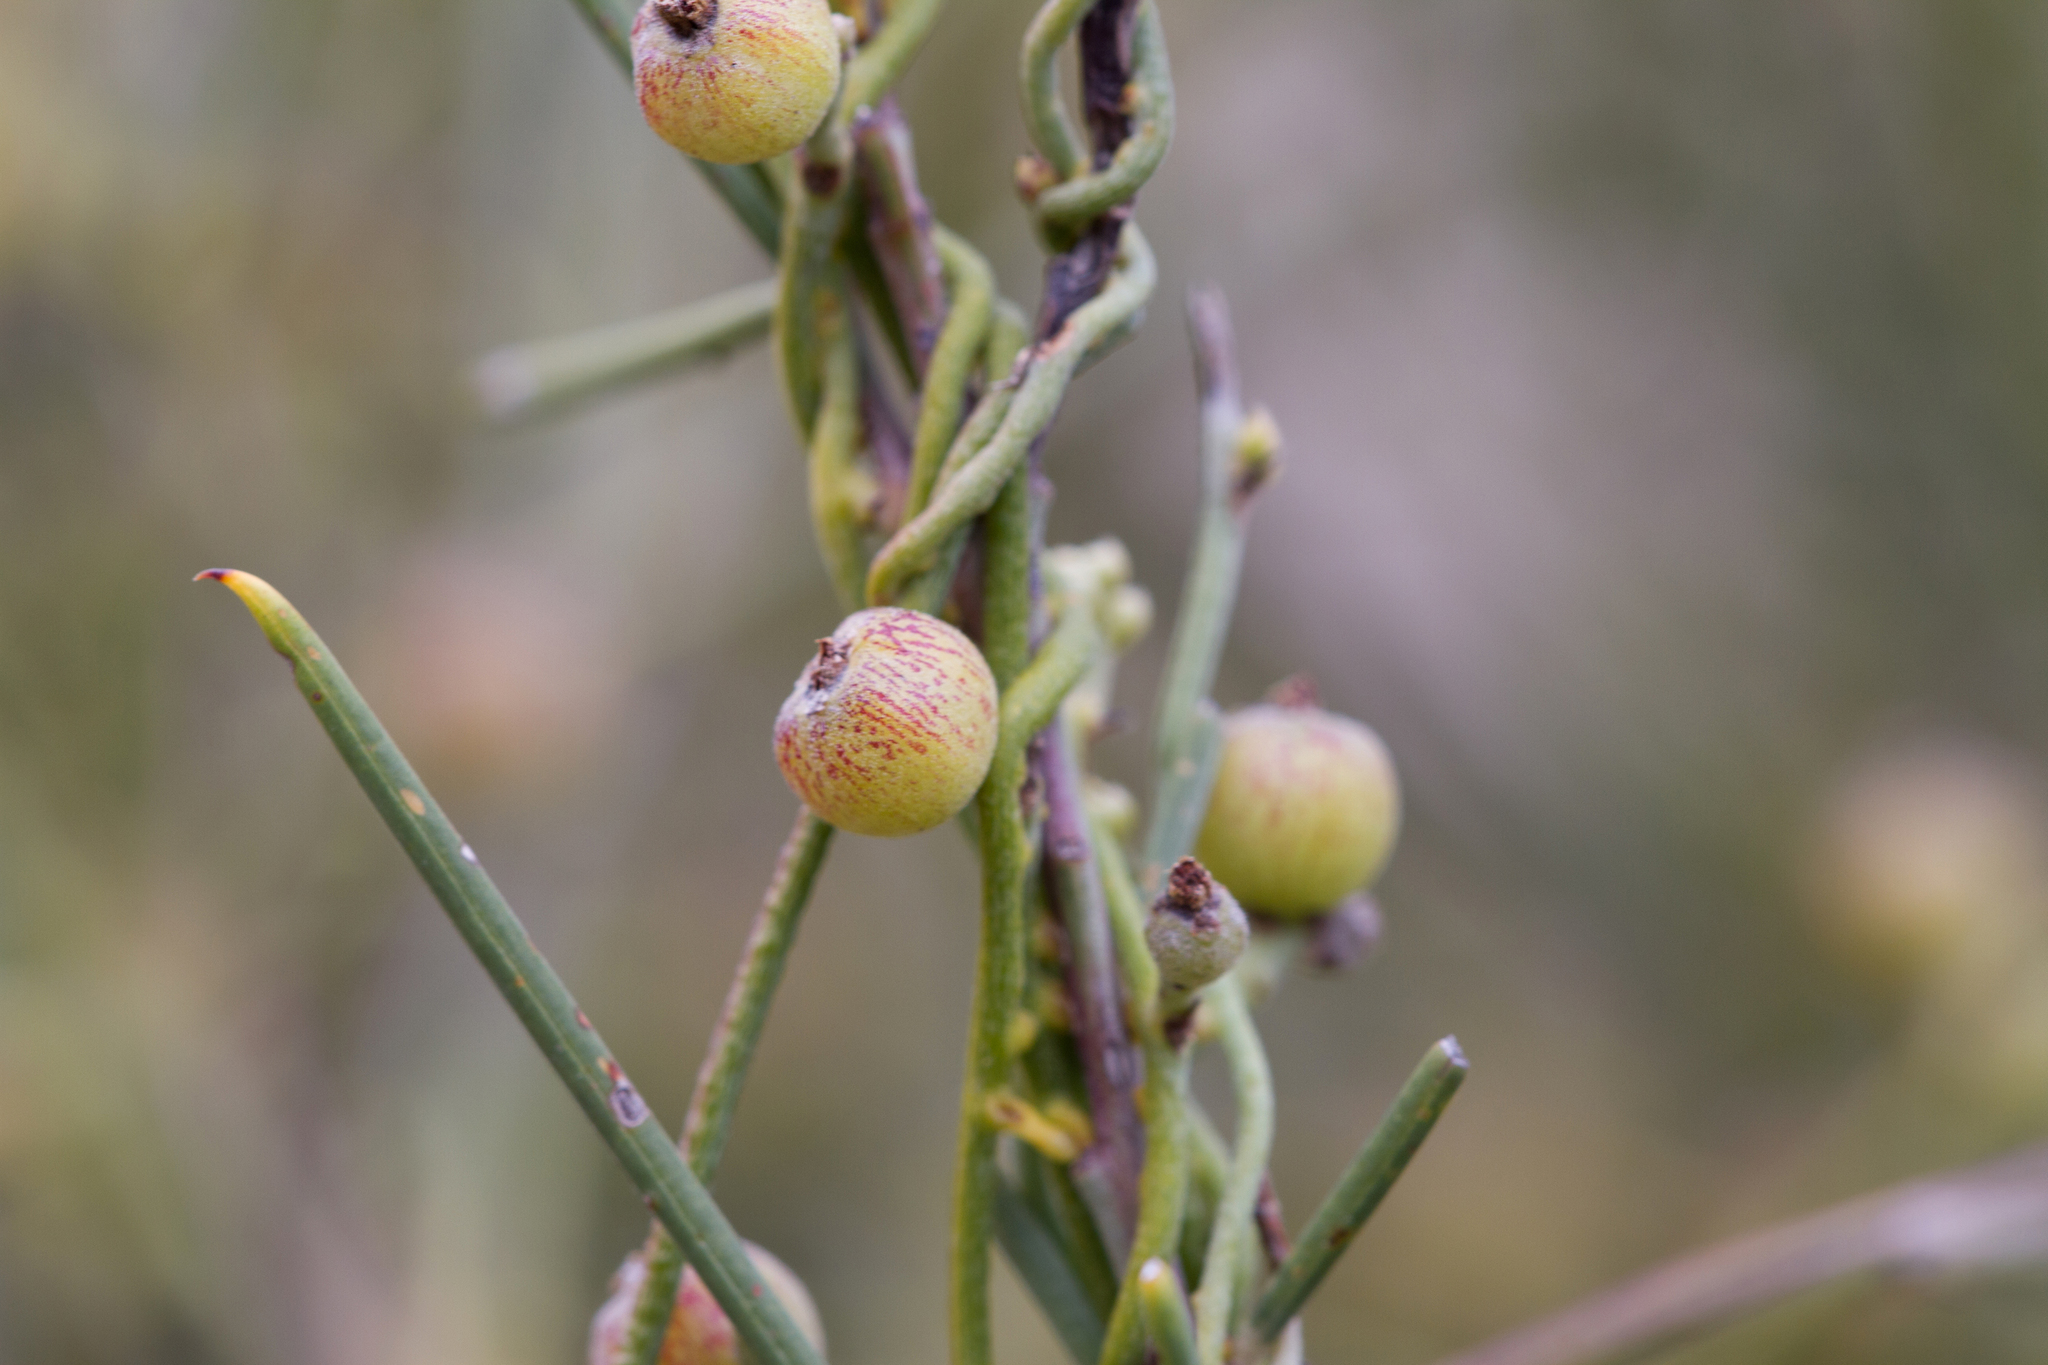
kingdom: Plantae
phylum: Tracheophyta
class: Magnoliopsida
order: Laurales
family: Lauraceae
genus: Cassytha
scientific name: Cassytha pubescens
